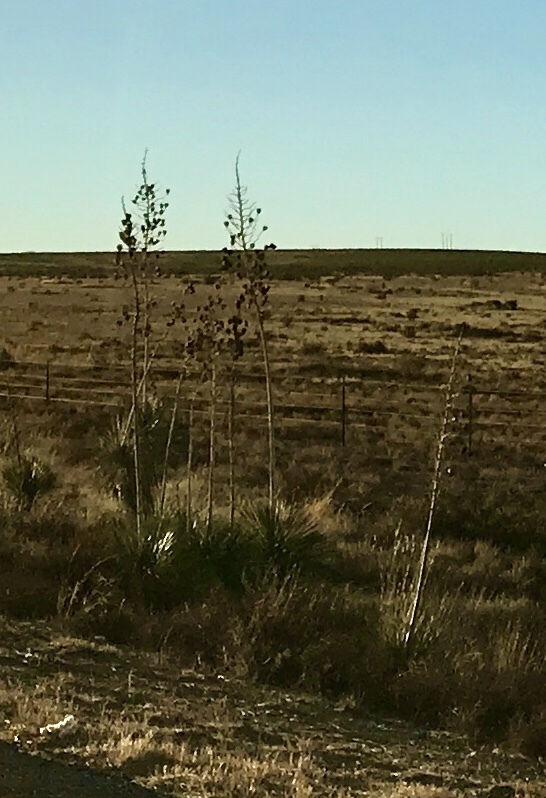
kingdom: Plantae
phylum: Tracheophyta
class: Liliopsida
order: Asparagales
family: Asparagaceae
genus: Yucca
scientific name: Yucca elata
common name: Palmella
